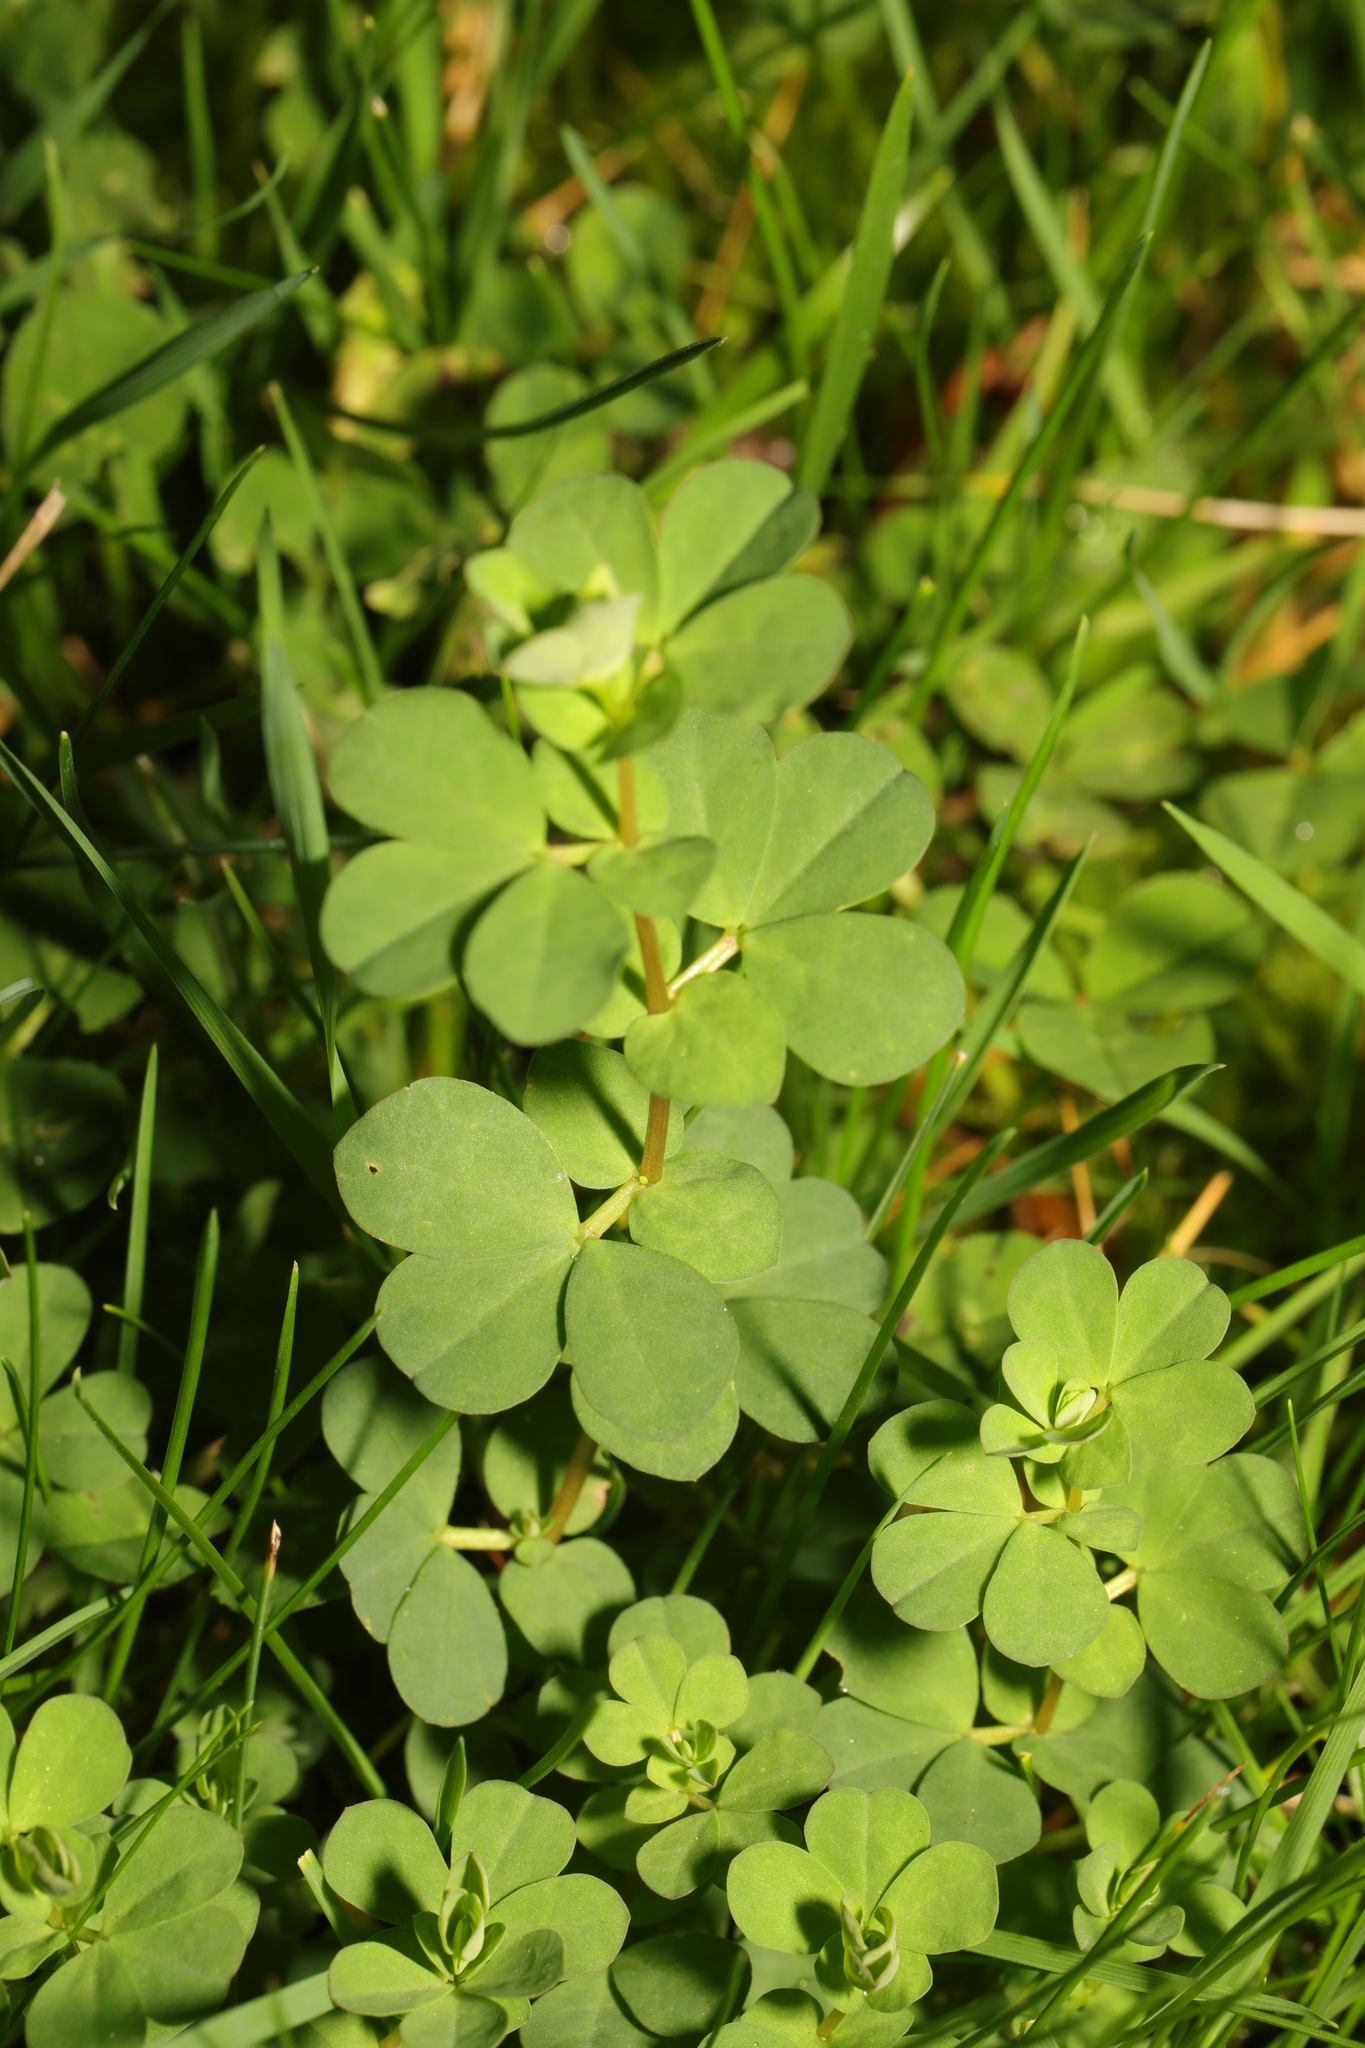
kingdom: Plantae
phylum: Tracheophyta
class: Magnoliopsida
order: Fabales
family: Fabaceae
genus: Lotus
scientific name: Lotus corniculatus
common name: Common bird's-foot-trefoil
